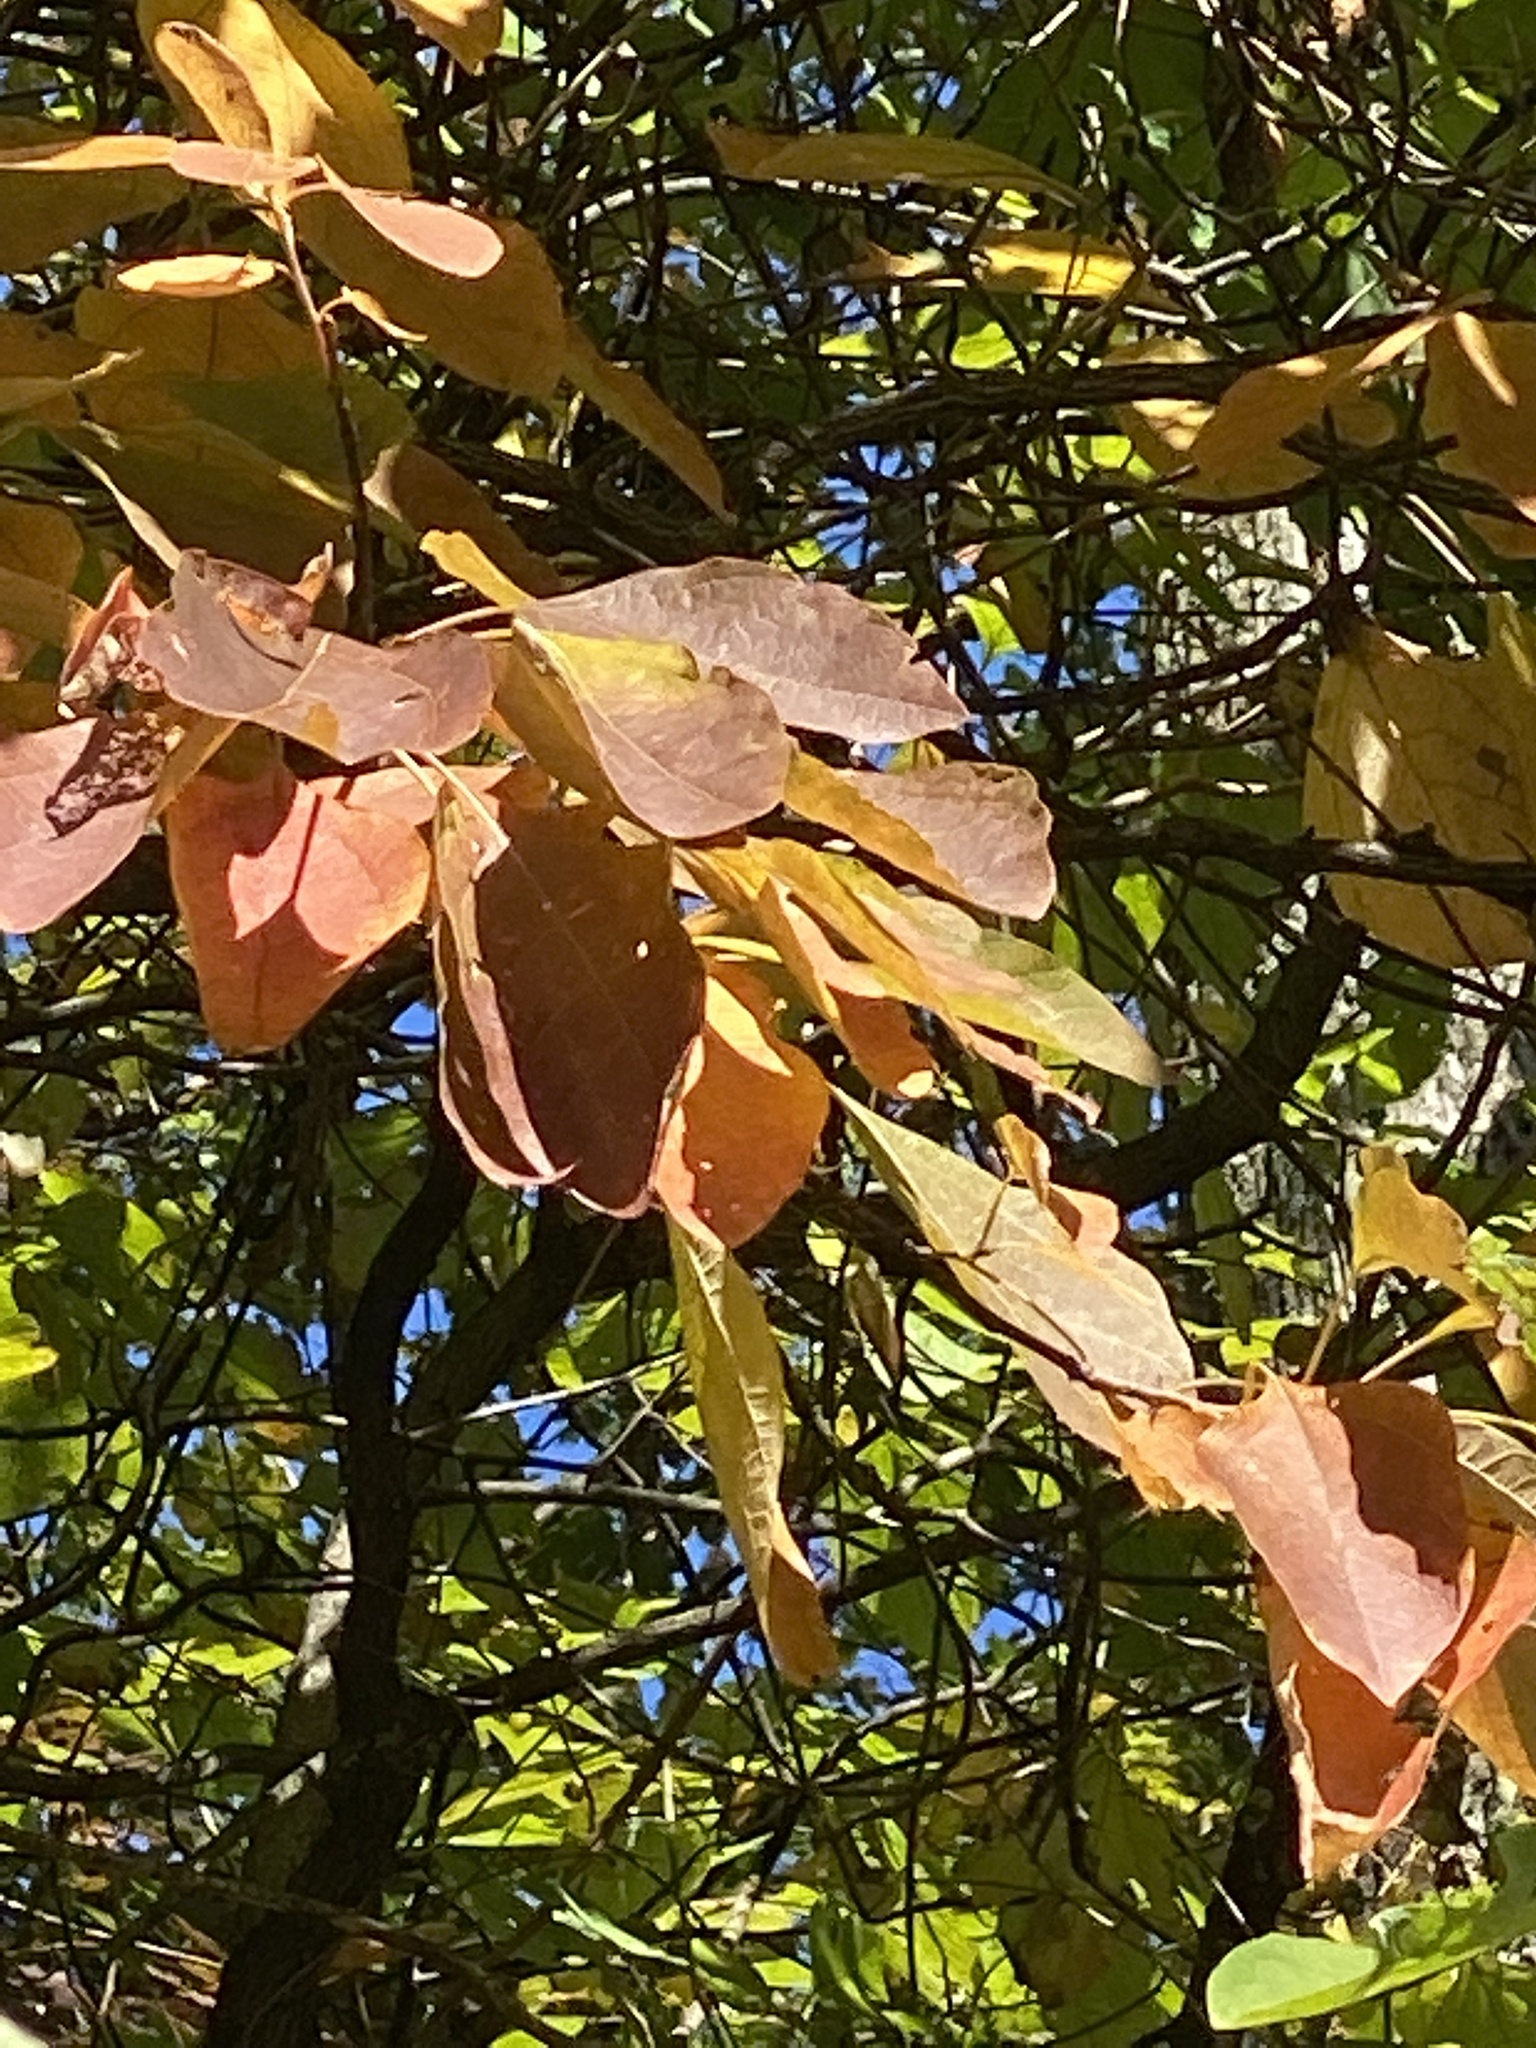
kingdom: Plantae
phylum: Tracheophyta
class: Magnoliopsida
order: Laurales
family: Lauraceae
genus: Sassafras
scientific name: Sassafras albidum
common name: Sassafras
